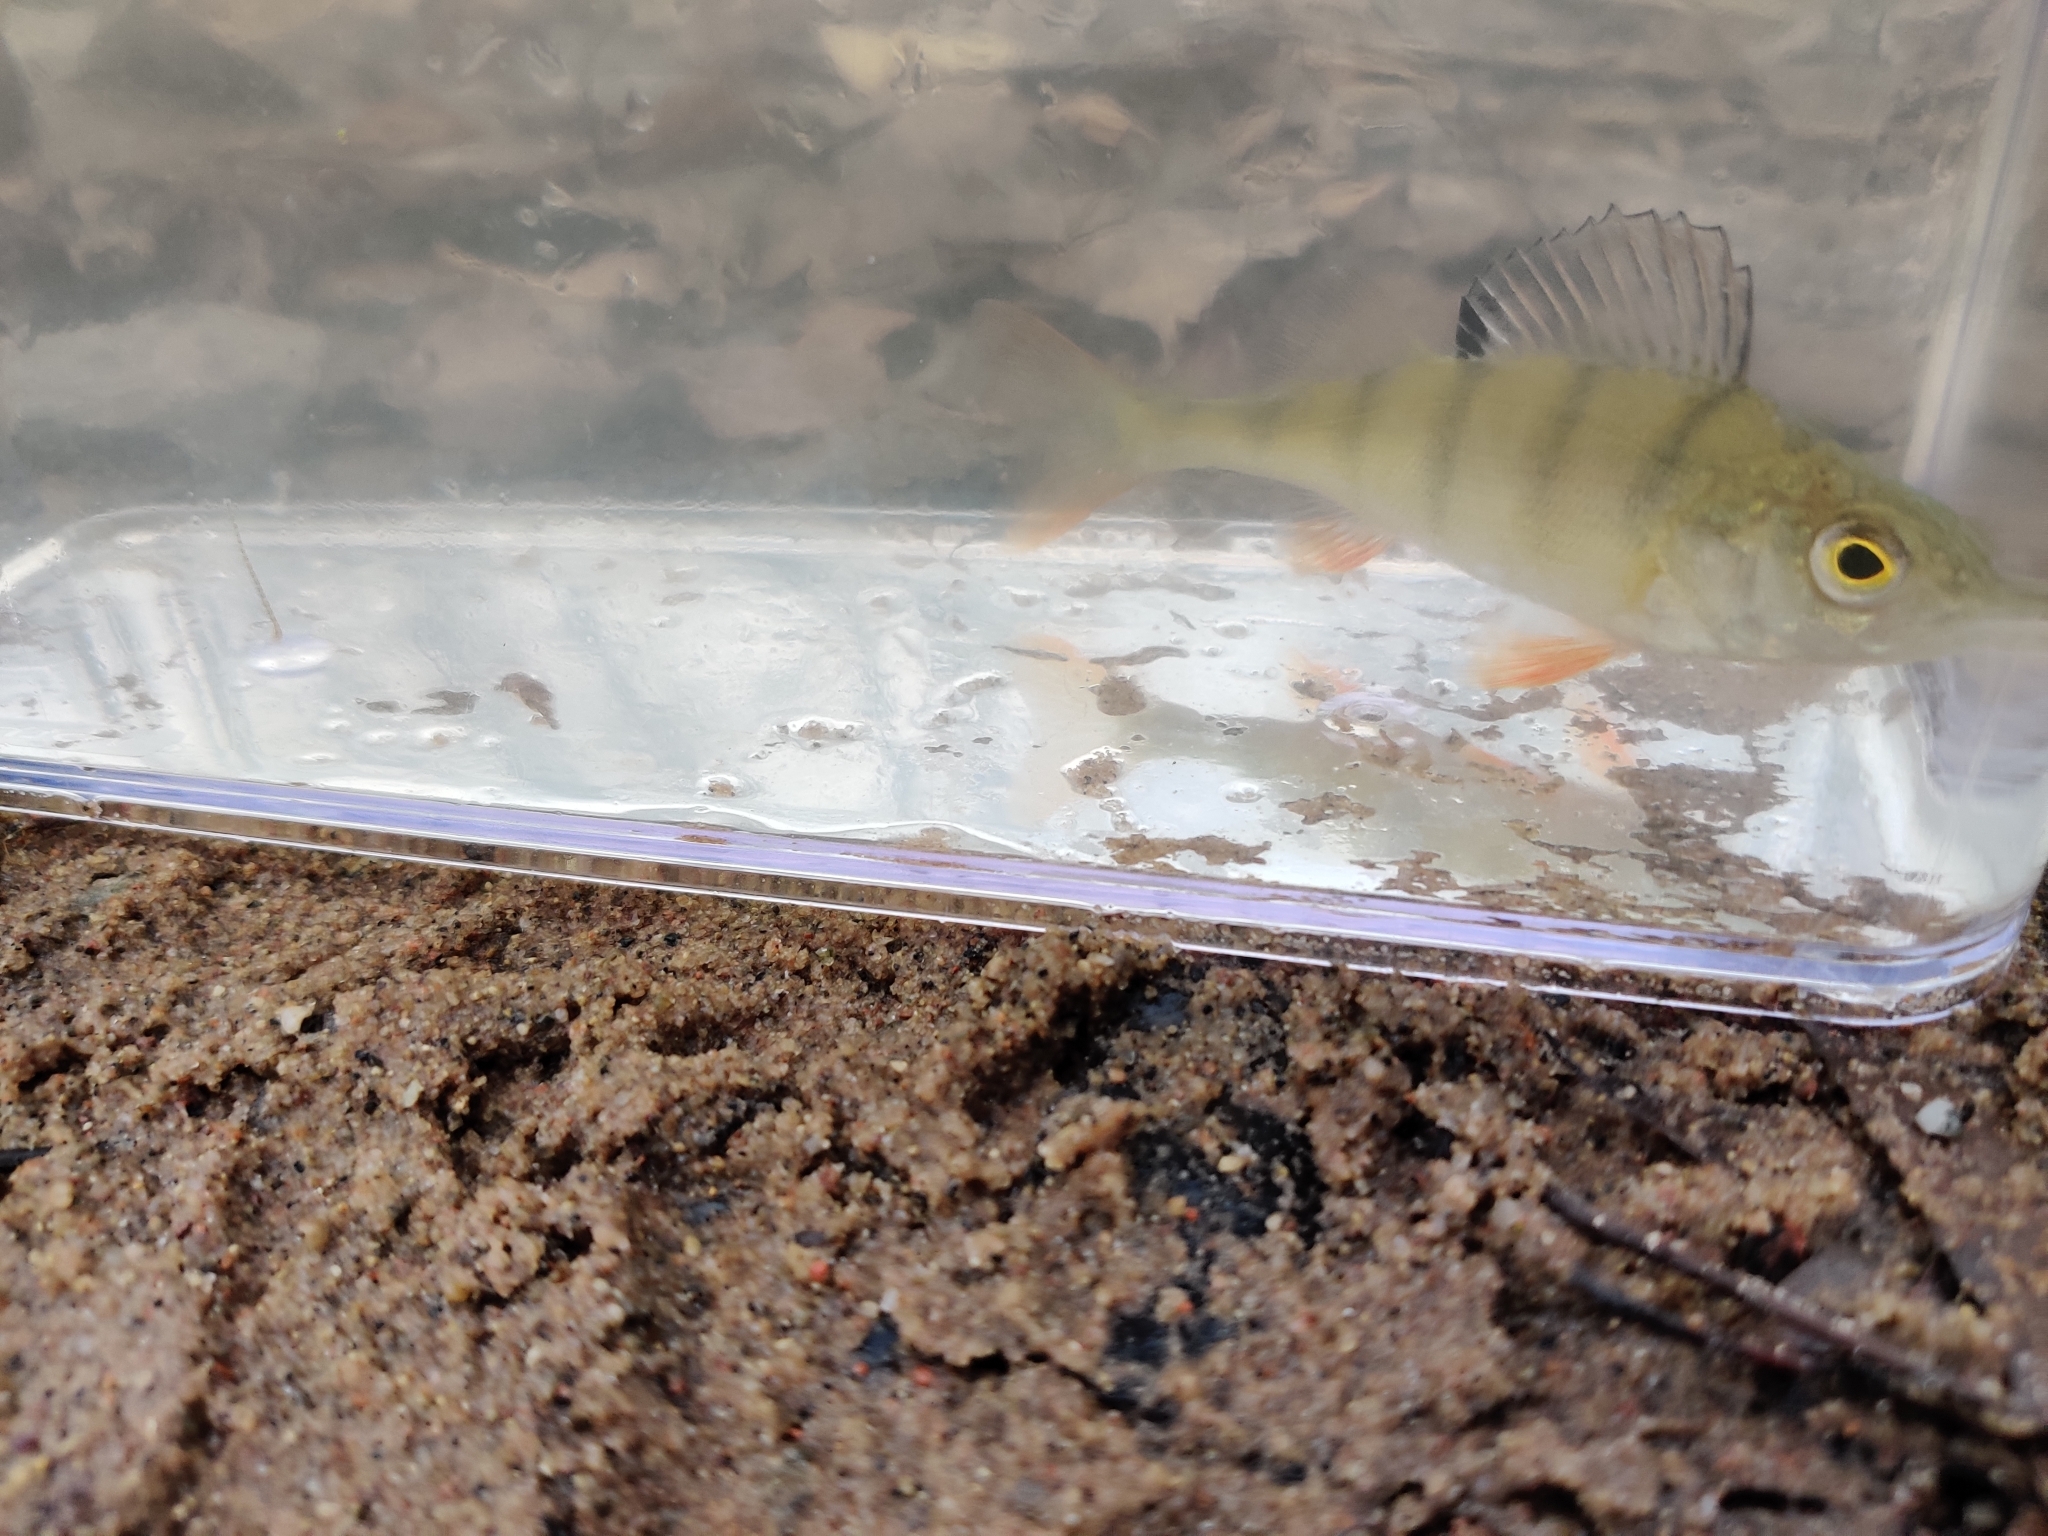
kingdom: Animalia
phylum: Chordata
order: Perciformes
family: Percidae
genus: Perca
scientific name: Perca fluviatilis
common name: Perch
